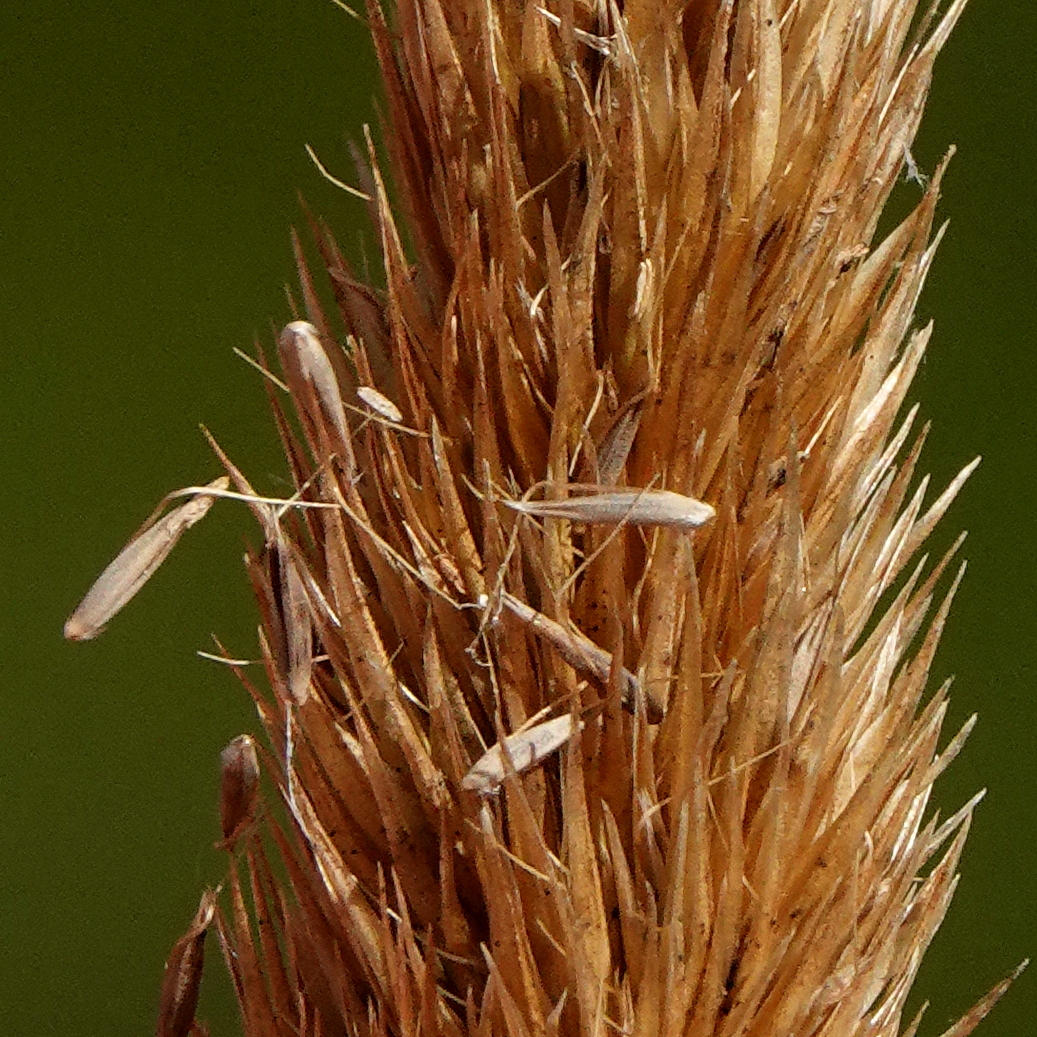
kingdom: Plantae
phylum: Tracheophyta
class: Liliopsida
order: Poales
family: Poaceae
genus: Calamagrostis
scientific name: Calamagrostis quadriseta
